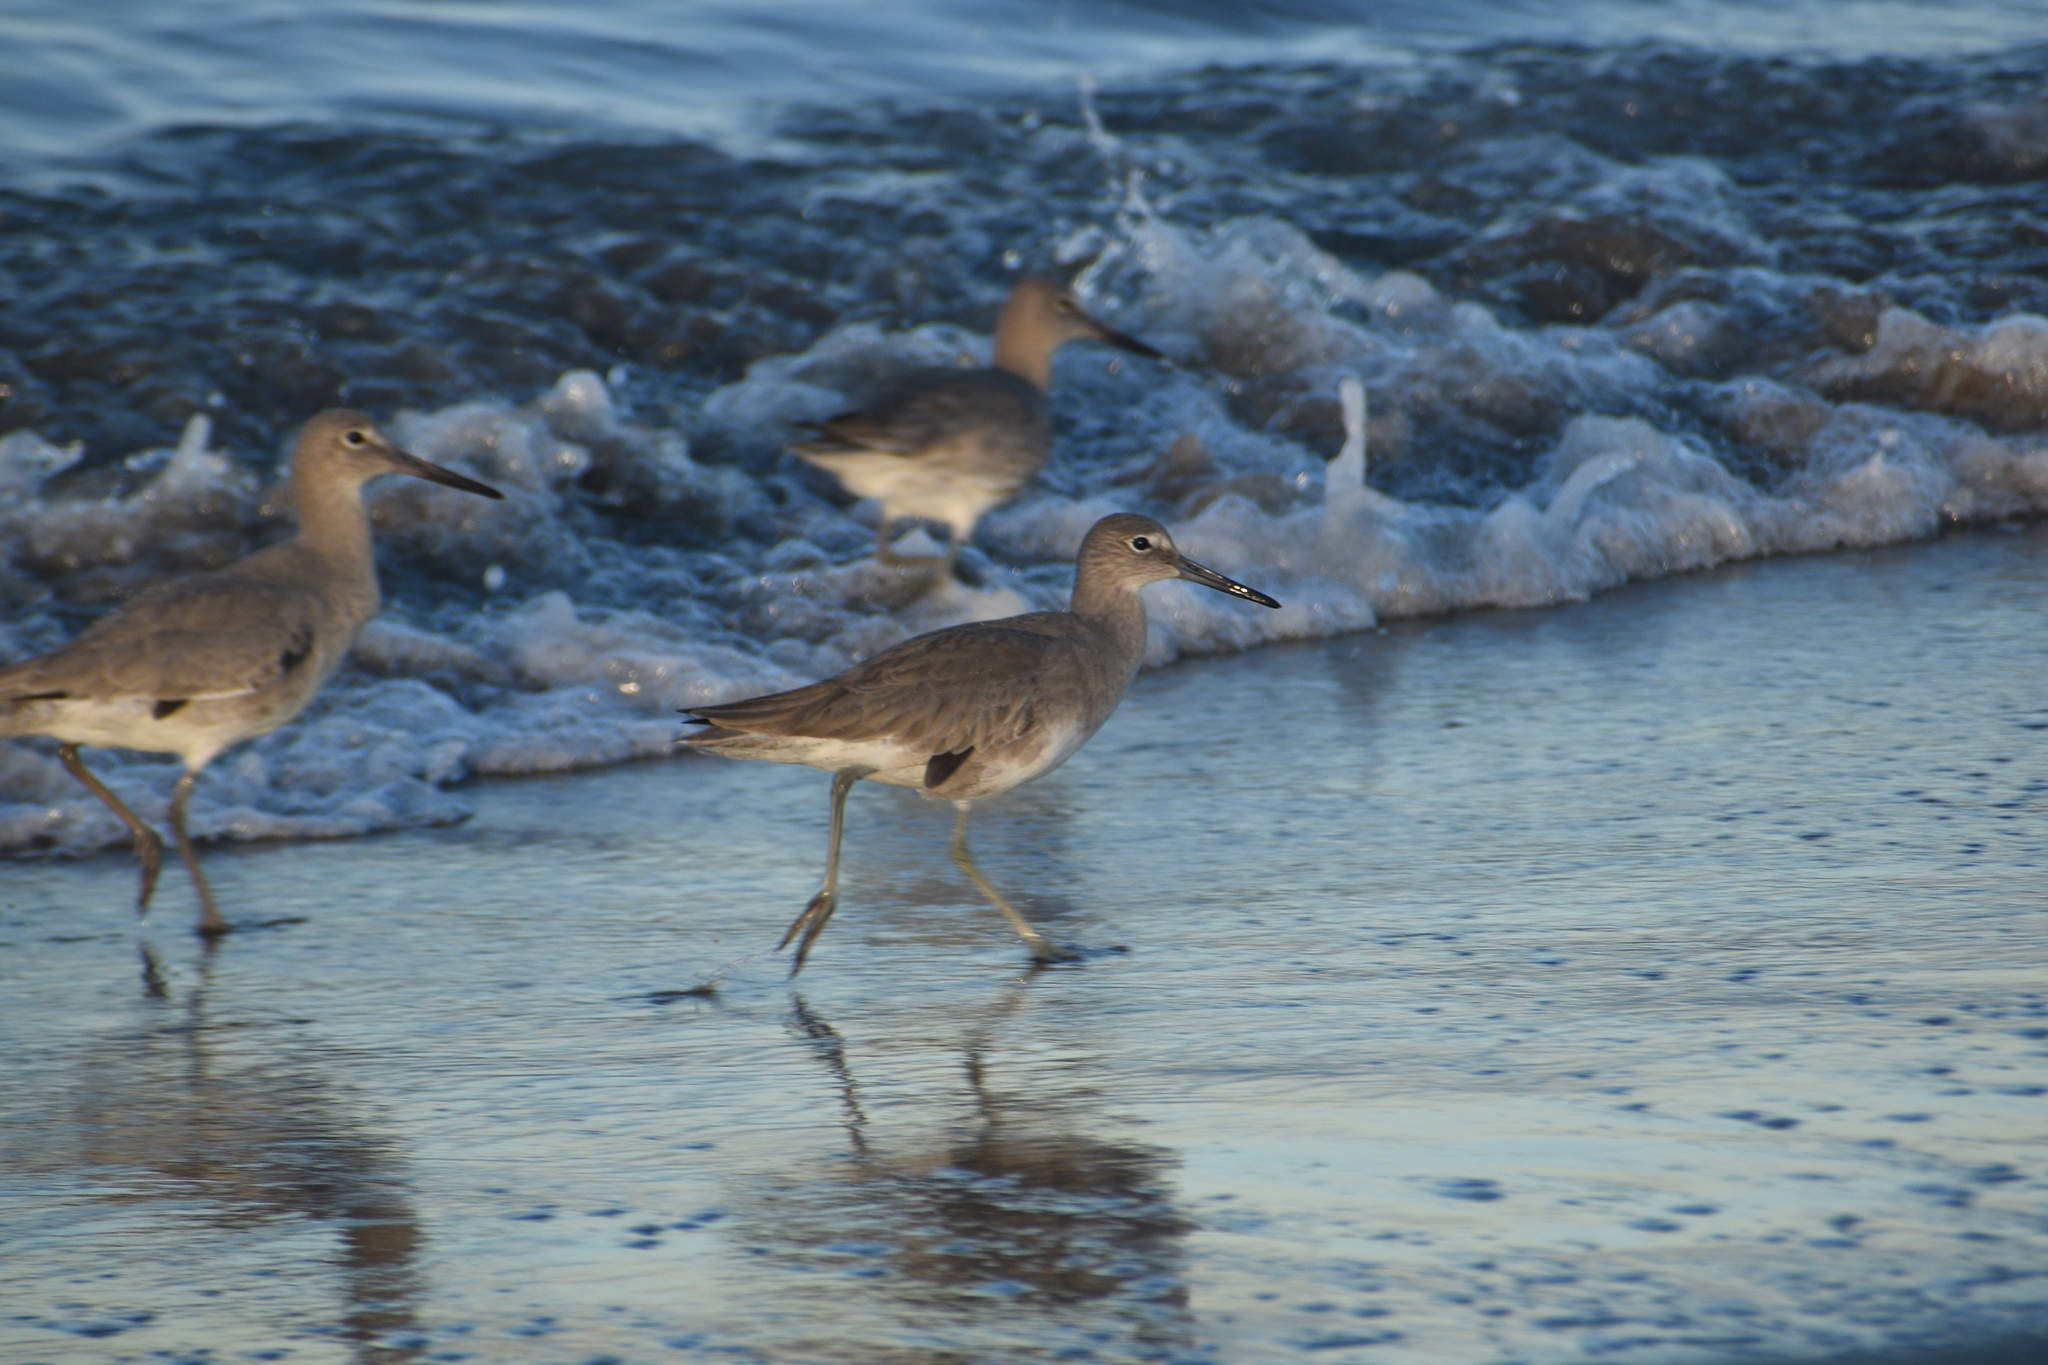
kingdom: Animalia
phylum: Chordata
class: Aves
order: Charadriiformes
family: Scolopacidae
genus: Tringa
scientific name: Tringa semipalmata
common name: Willet
